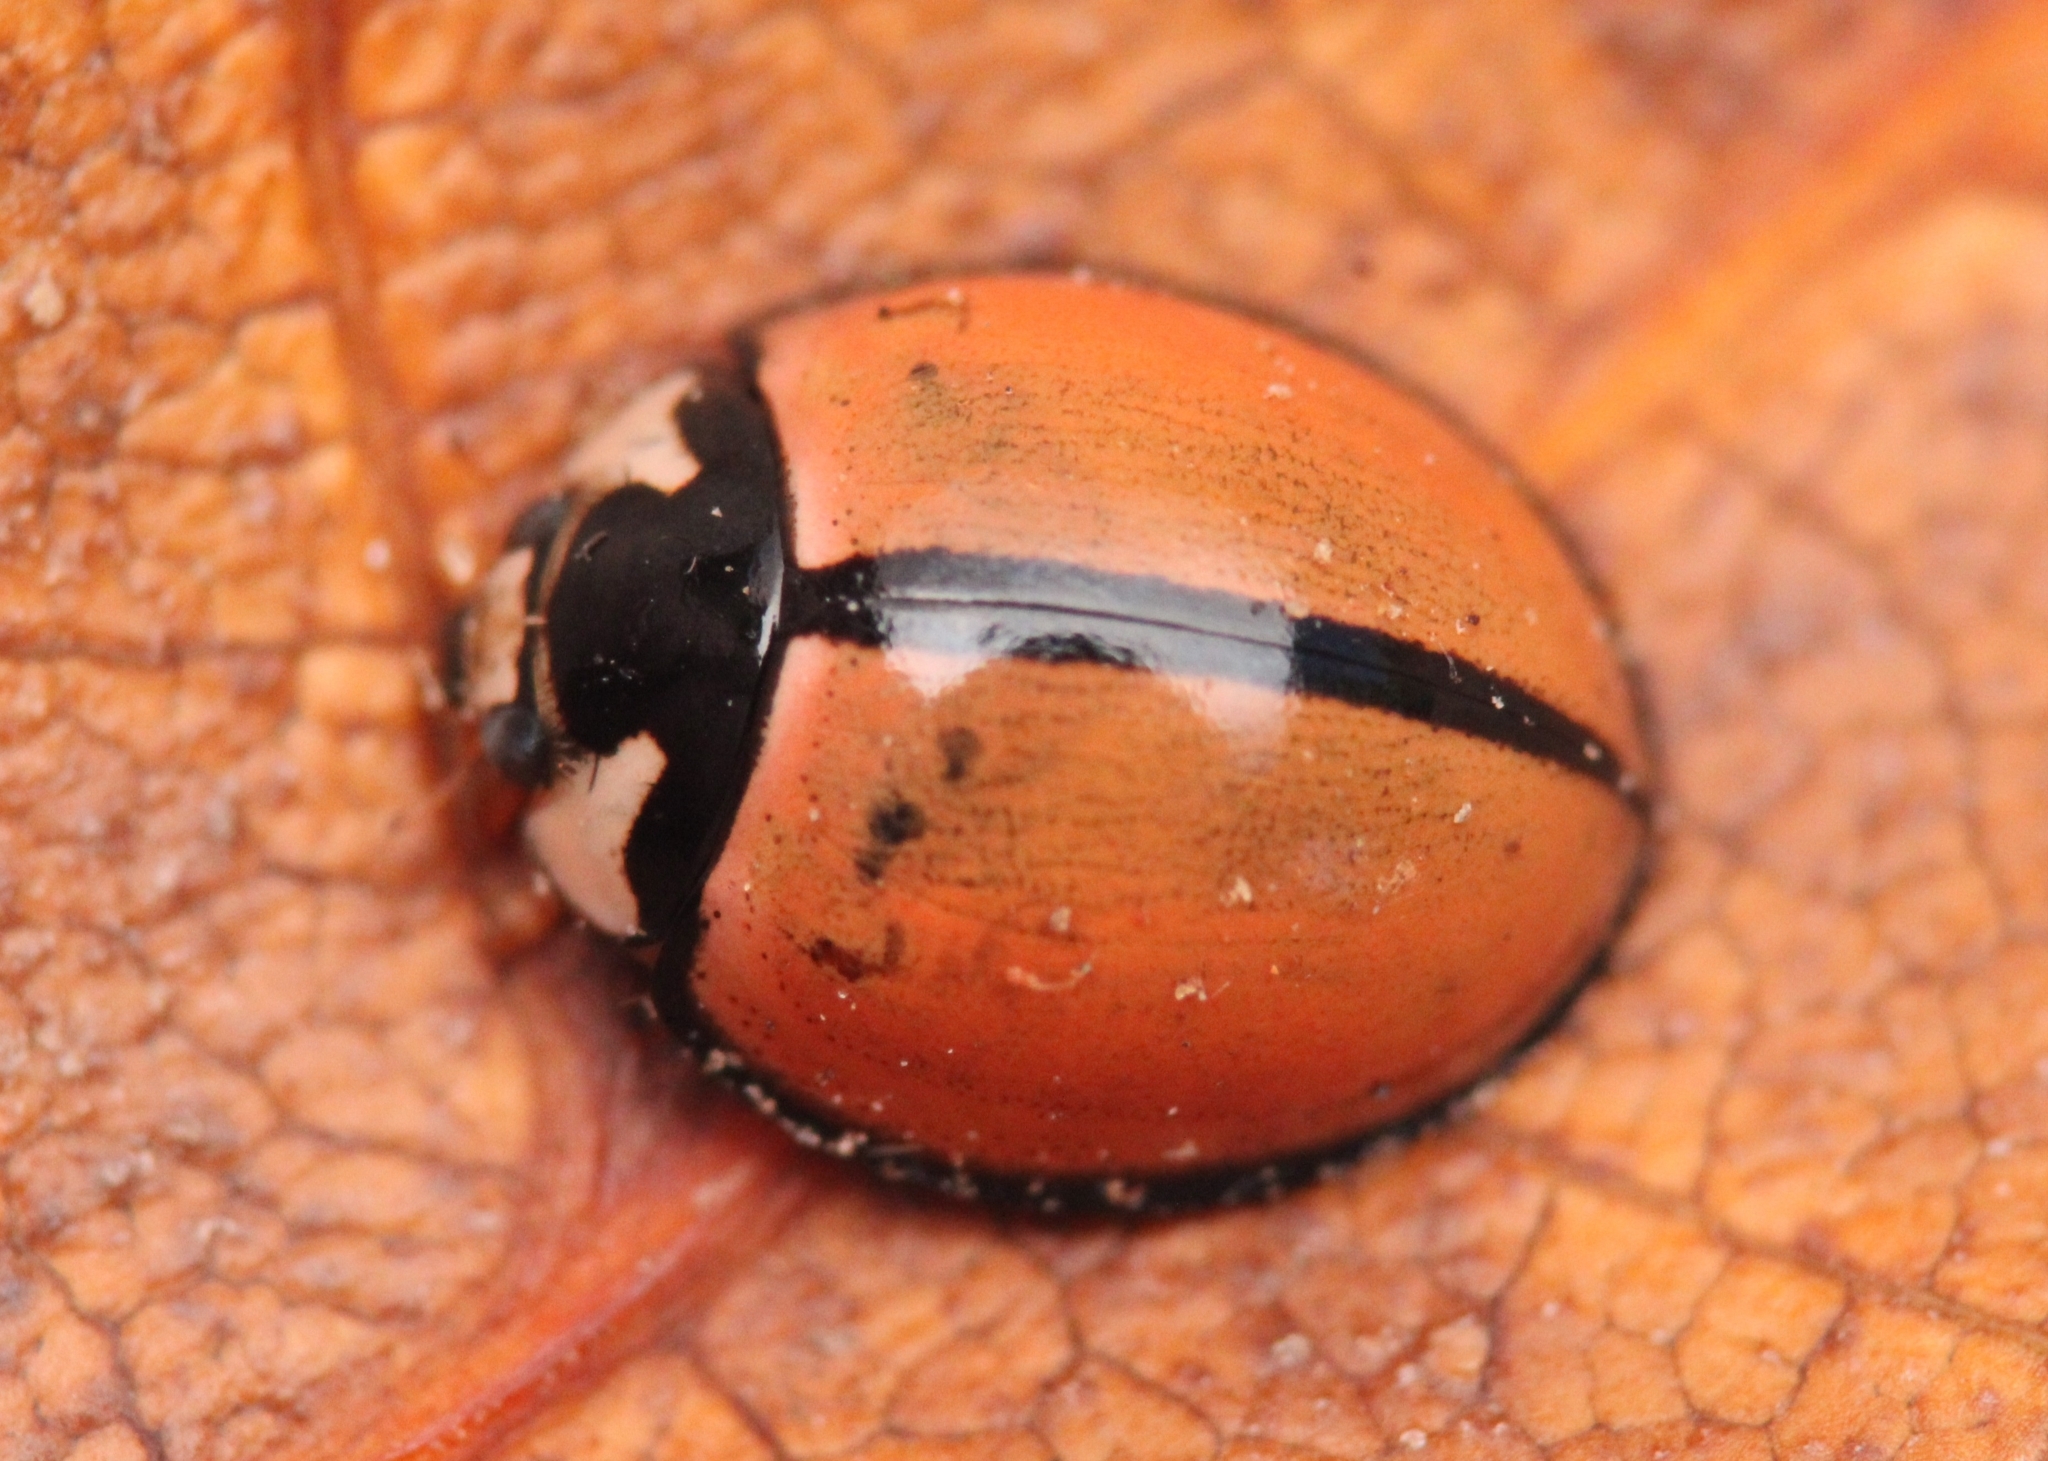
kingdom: Animalia
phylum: Arthropoda
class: Insecta
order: Coleoptera
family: Coccinellidae
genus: Cheilomenes
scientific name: Cheilomenes propinqua
